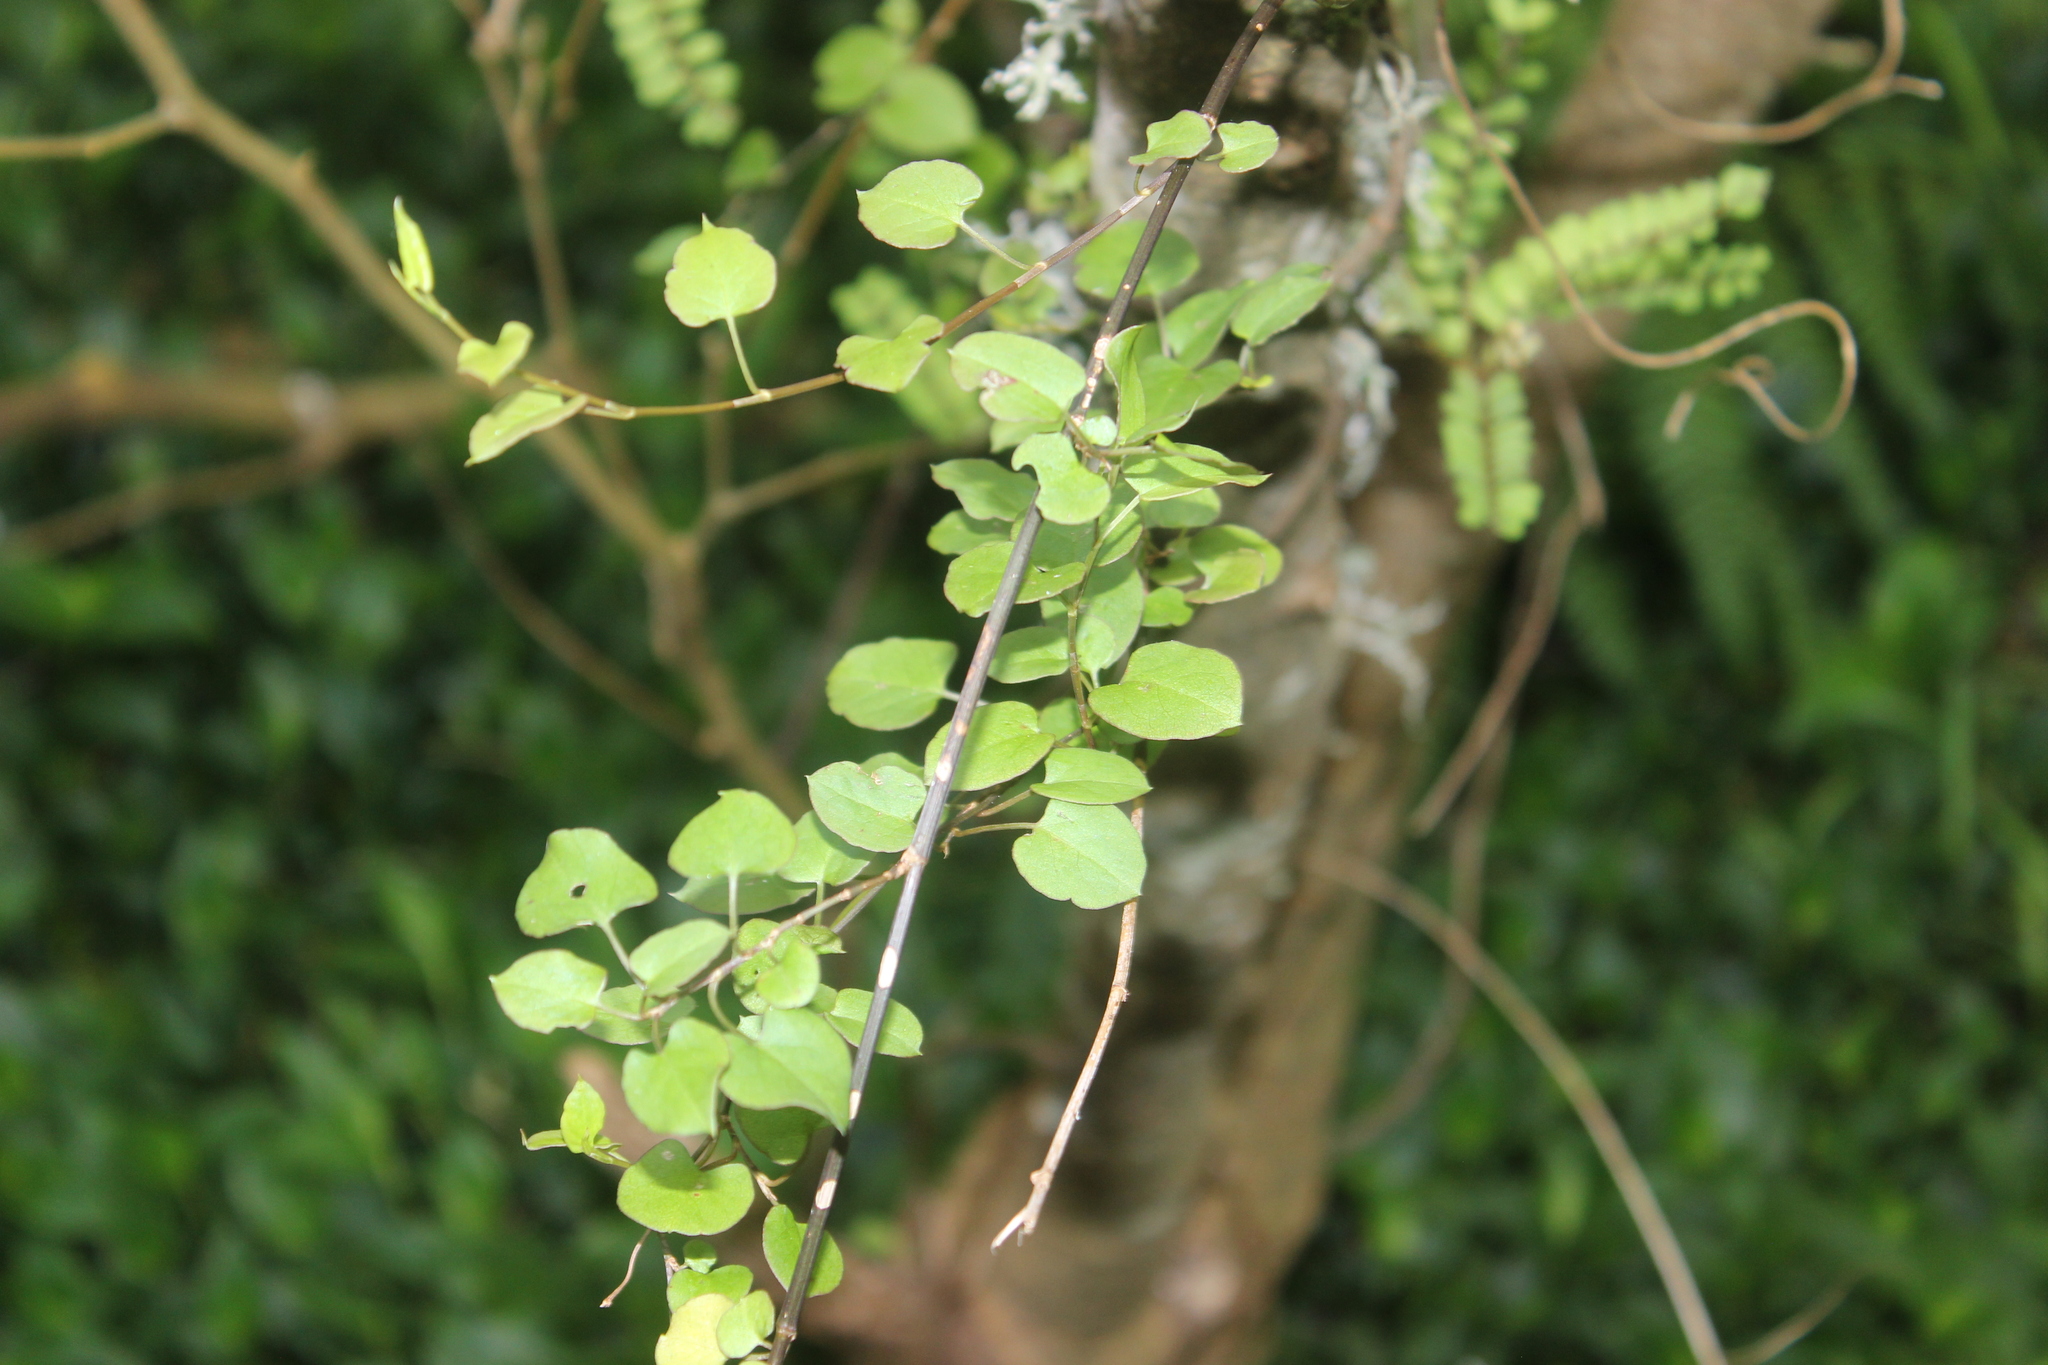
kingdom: Plantae
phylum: Tracheophyta
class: Magnoliopsida
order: Caryophyllales
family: Polygonaceae
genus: Muehlenbeckia
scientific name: Muehlenbeckia australis
